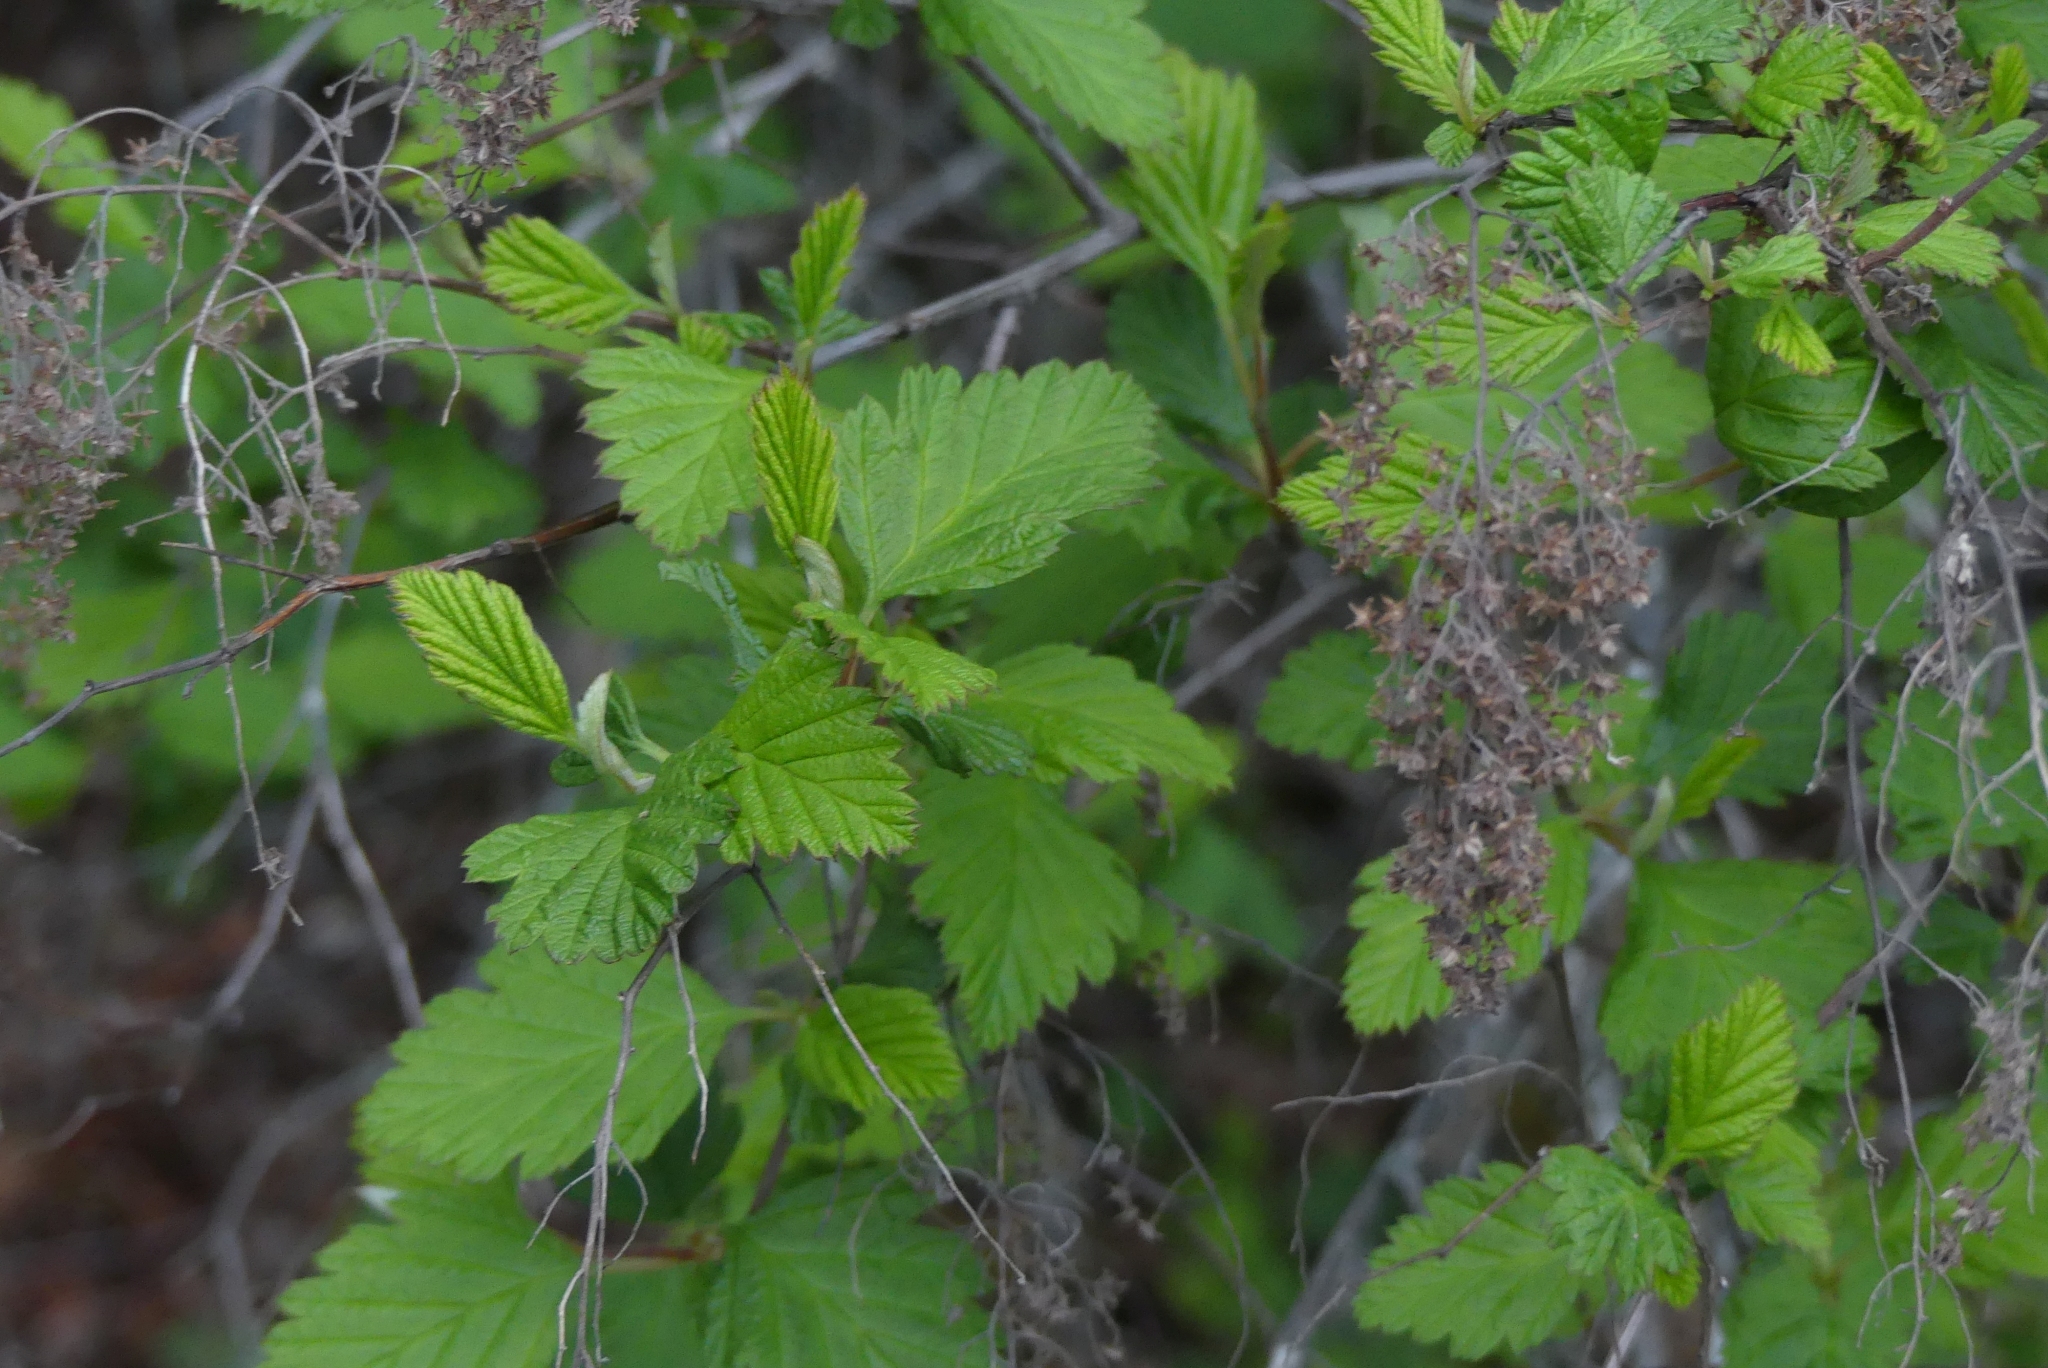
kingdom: Plantae
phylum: Tracheophyta
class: Magnoliopsida
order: Rosales
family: Rosaceae
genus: Holodiscus
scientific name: Holodiscus discolor
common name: Oceanspray
